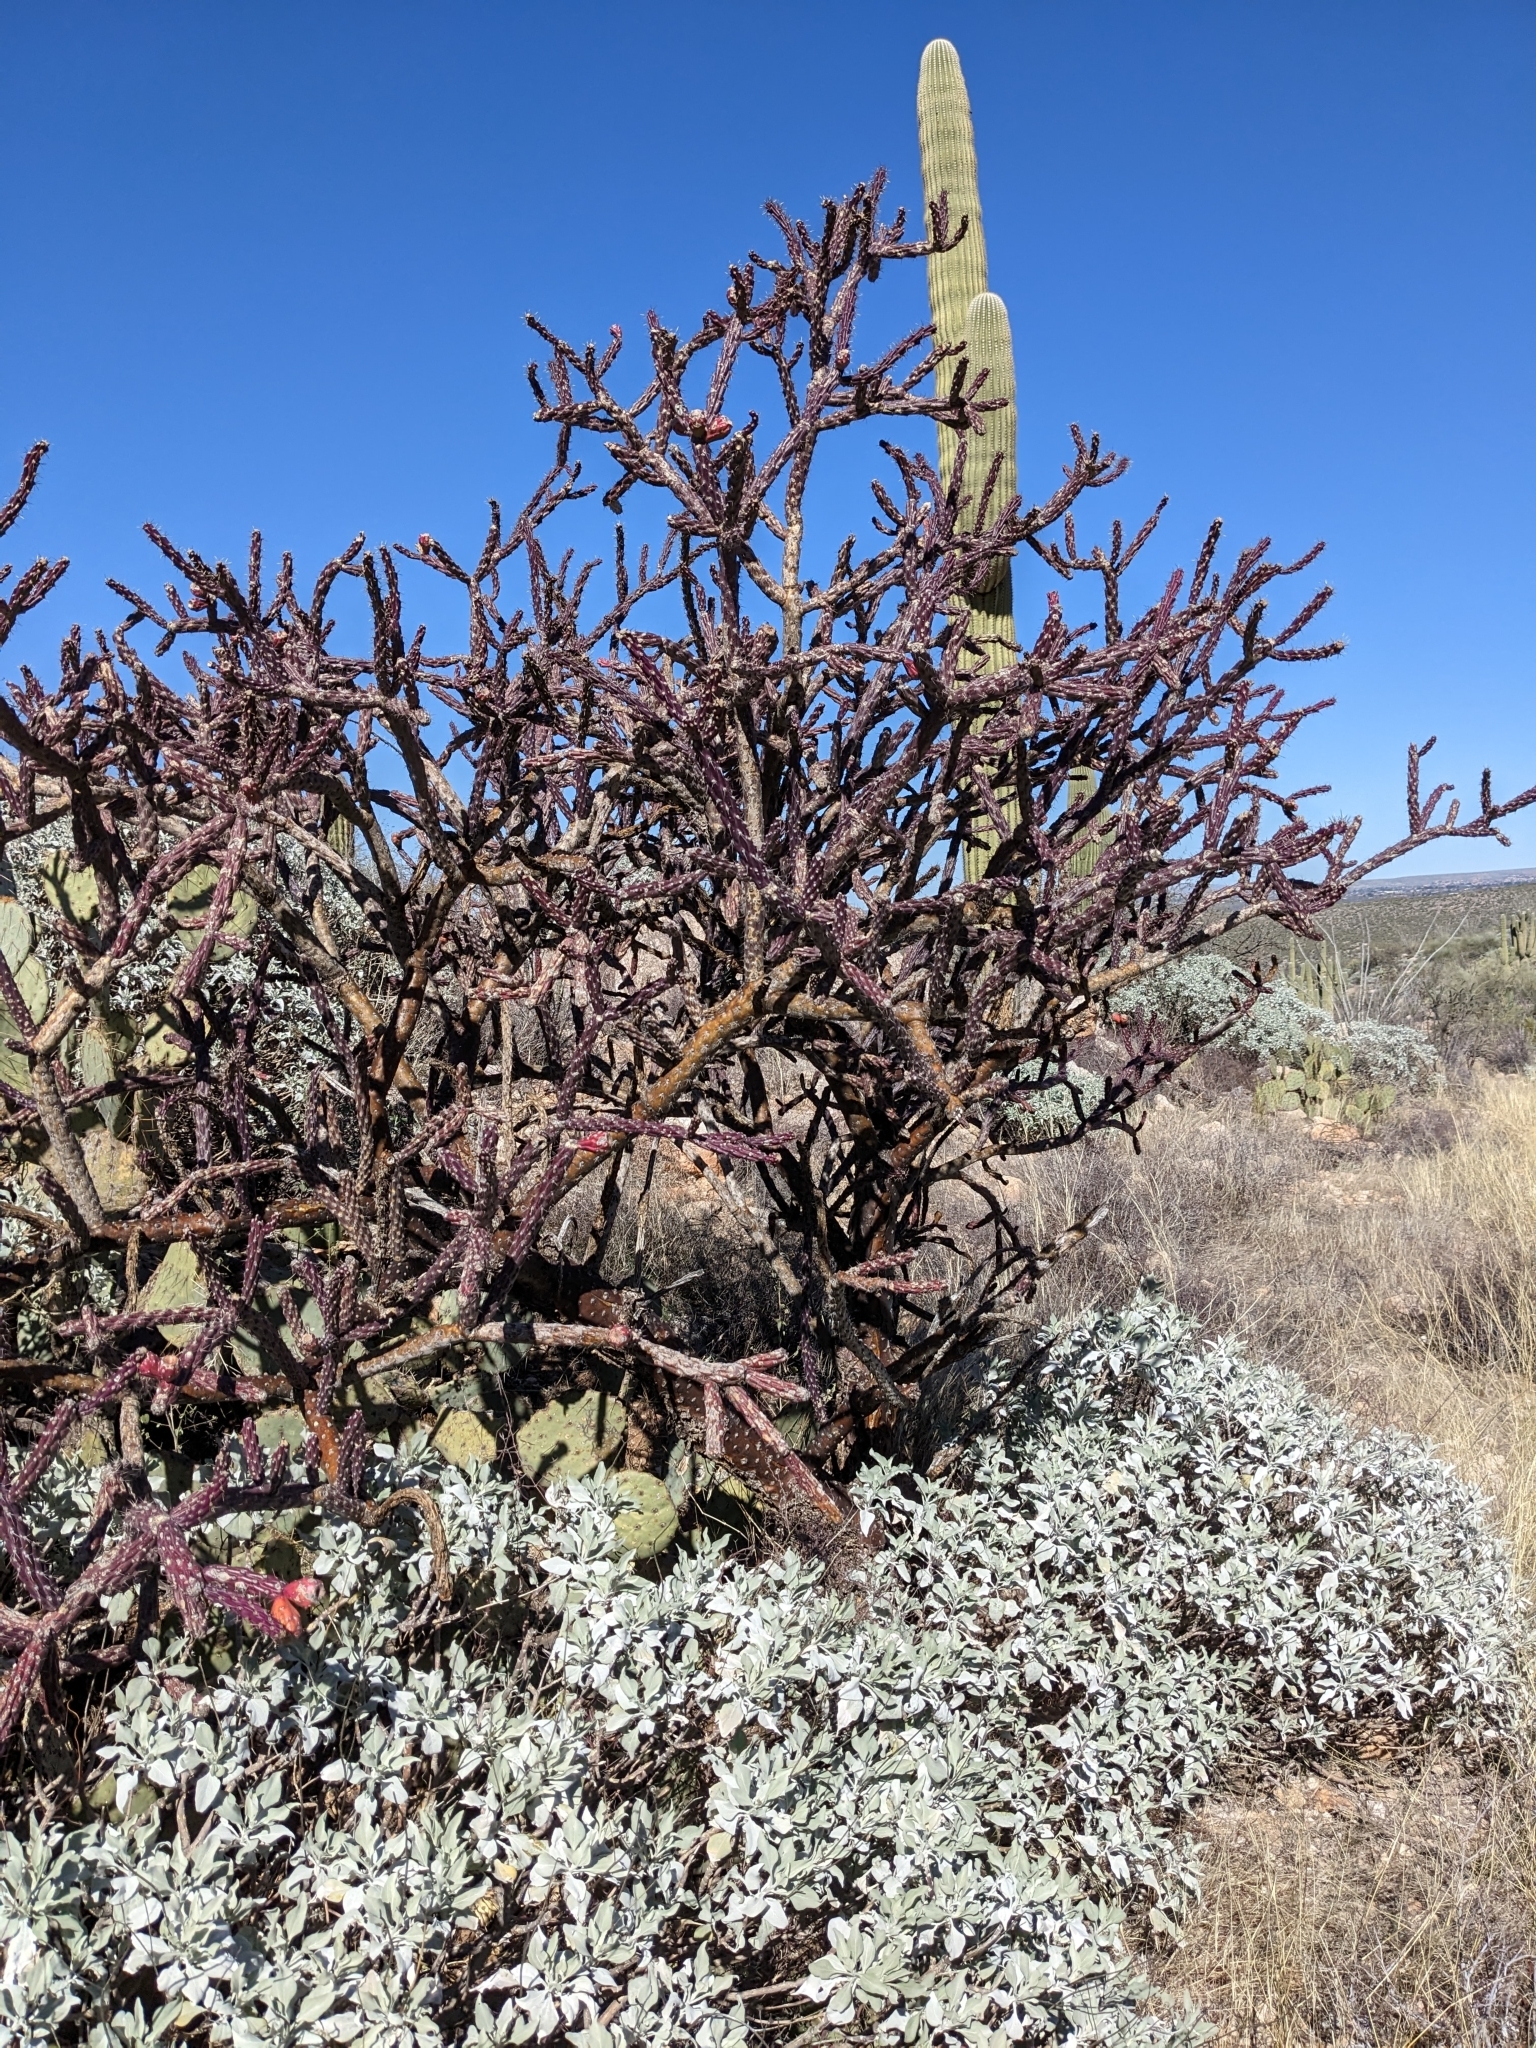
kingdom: Plantae
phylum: Tracheophyta
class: Magnoliopsida
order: Caryophyllales
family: Cactaceae
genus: Cylindropuntia
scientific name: Cylindropuntia thurberi
